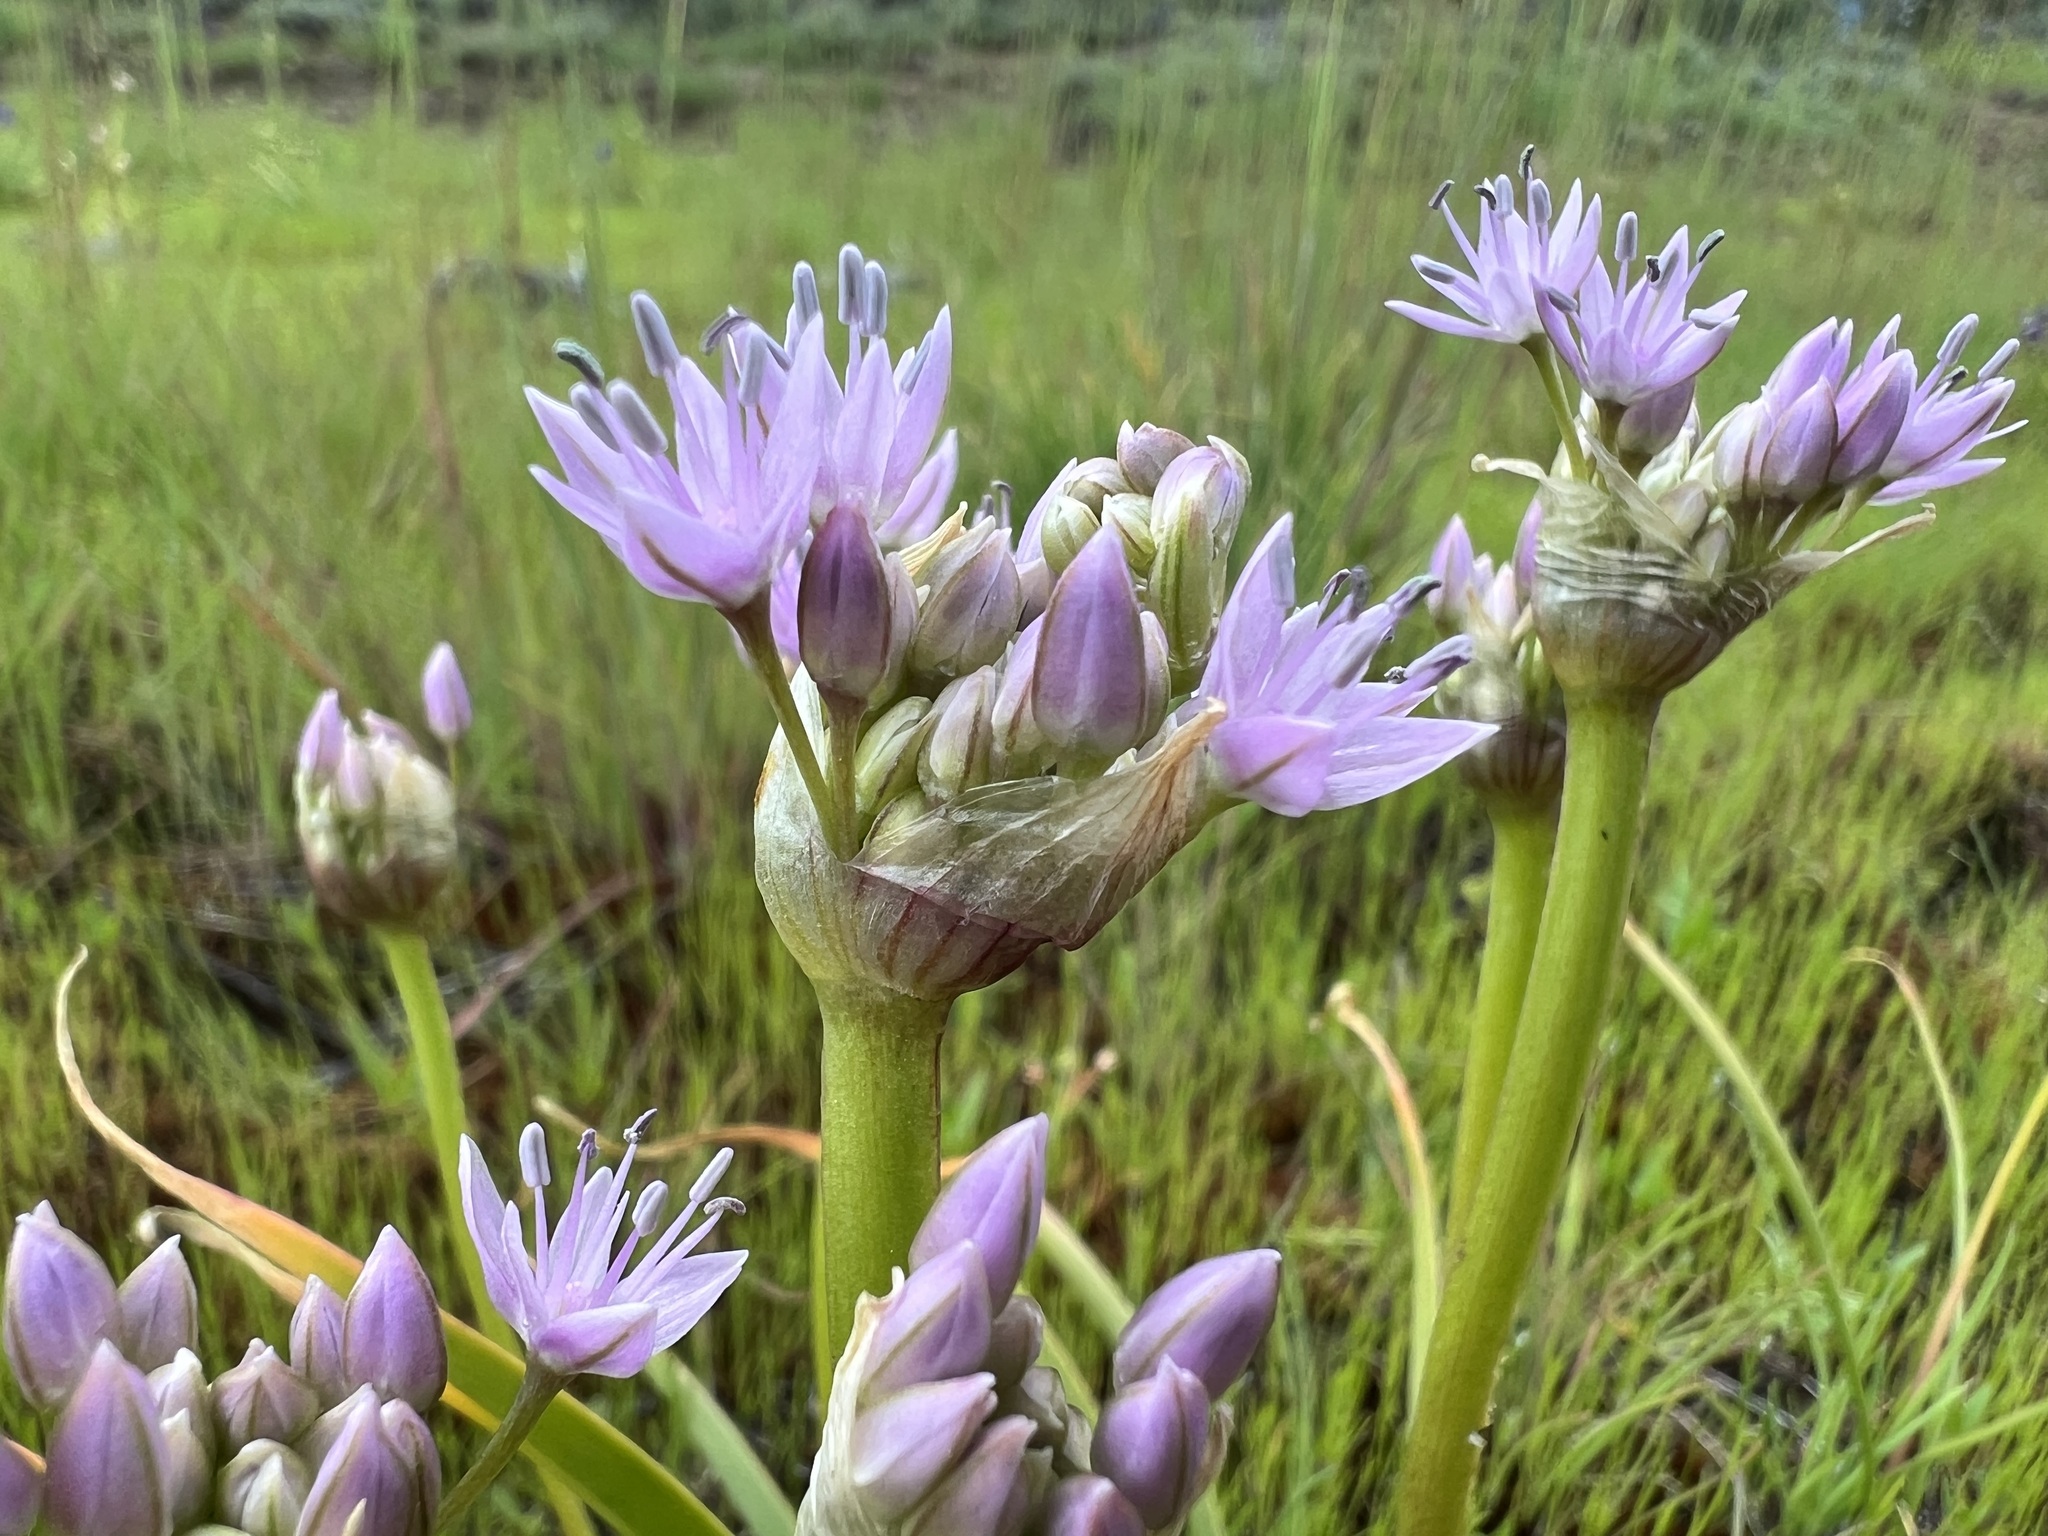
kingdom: Plantae
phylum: Tracheophyta
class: Liliopsida
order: Asparagales
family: Amaryllidaceae
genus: Allium
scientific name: Allium lemmonii
